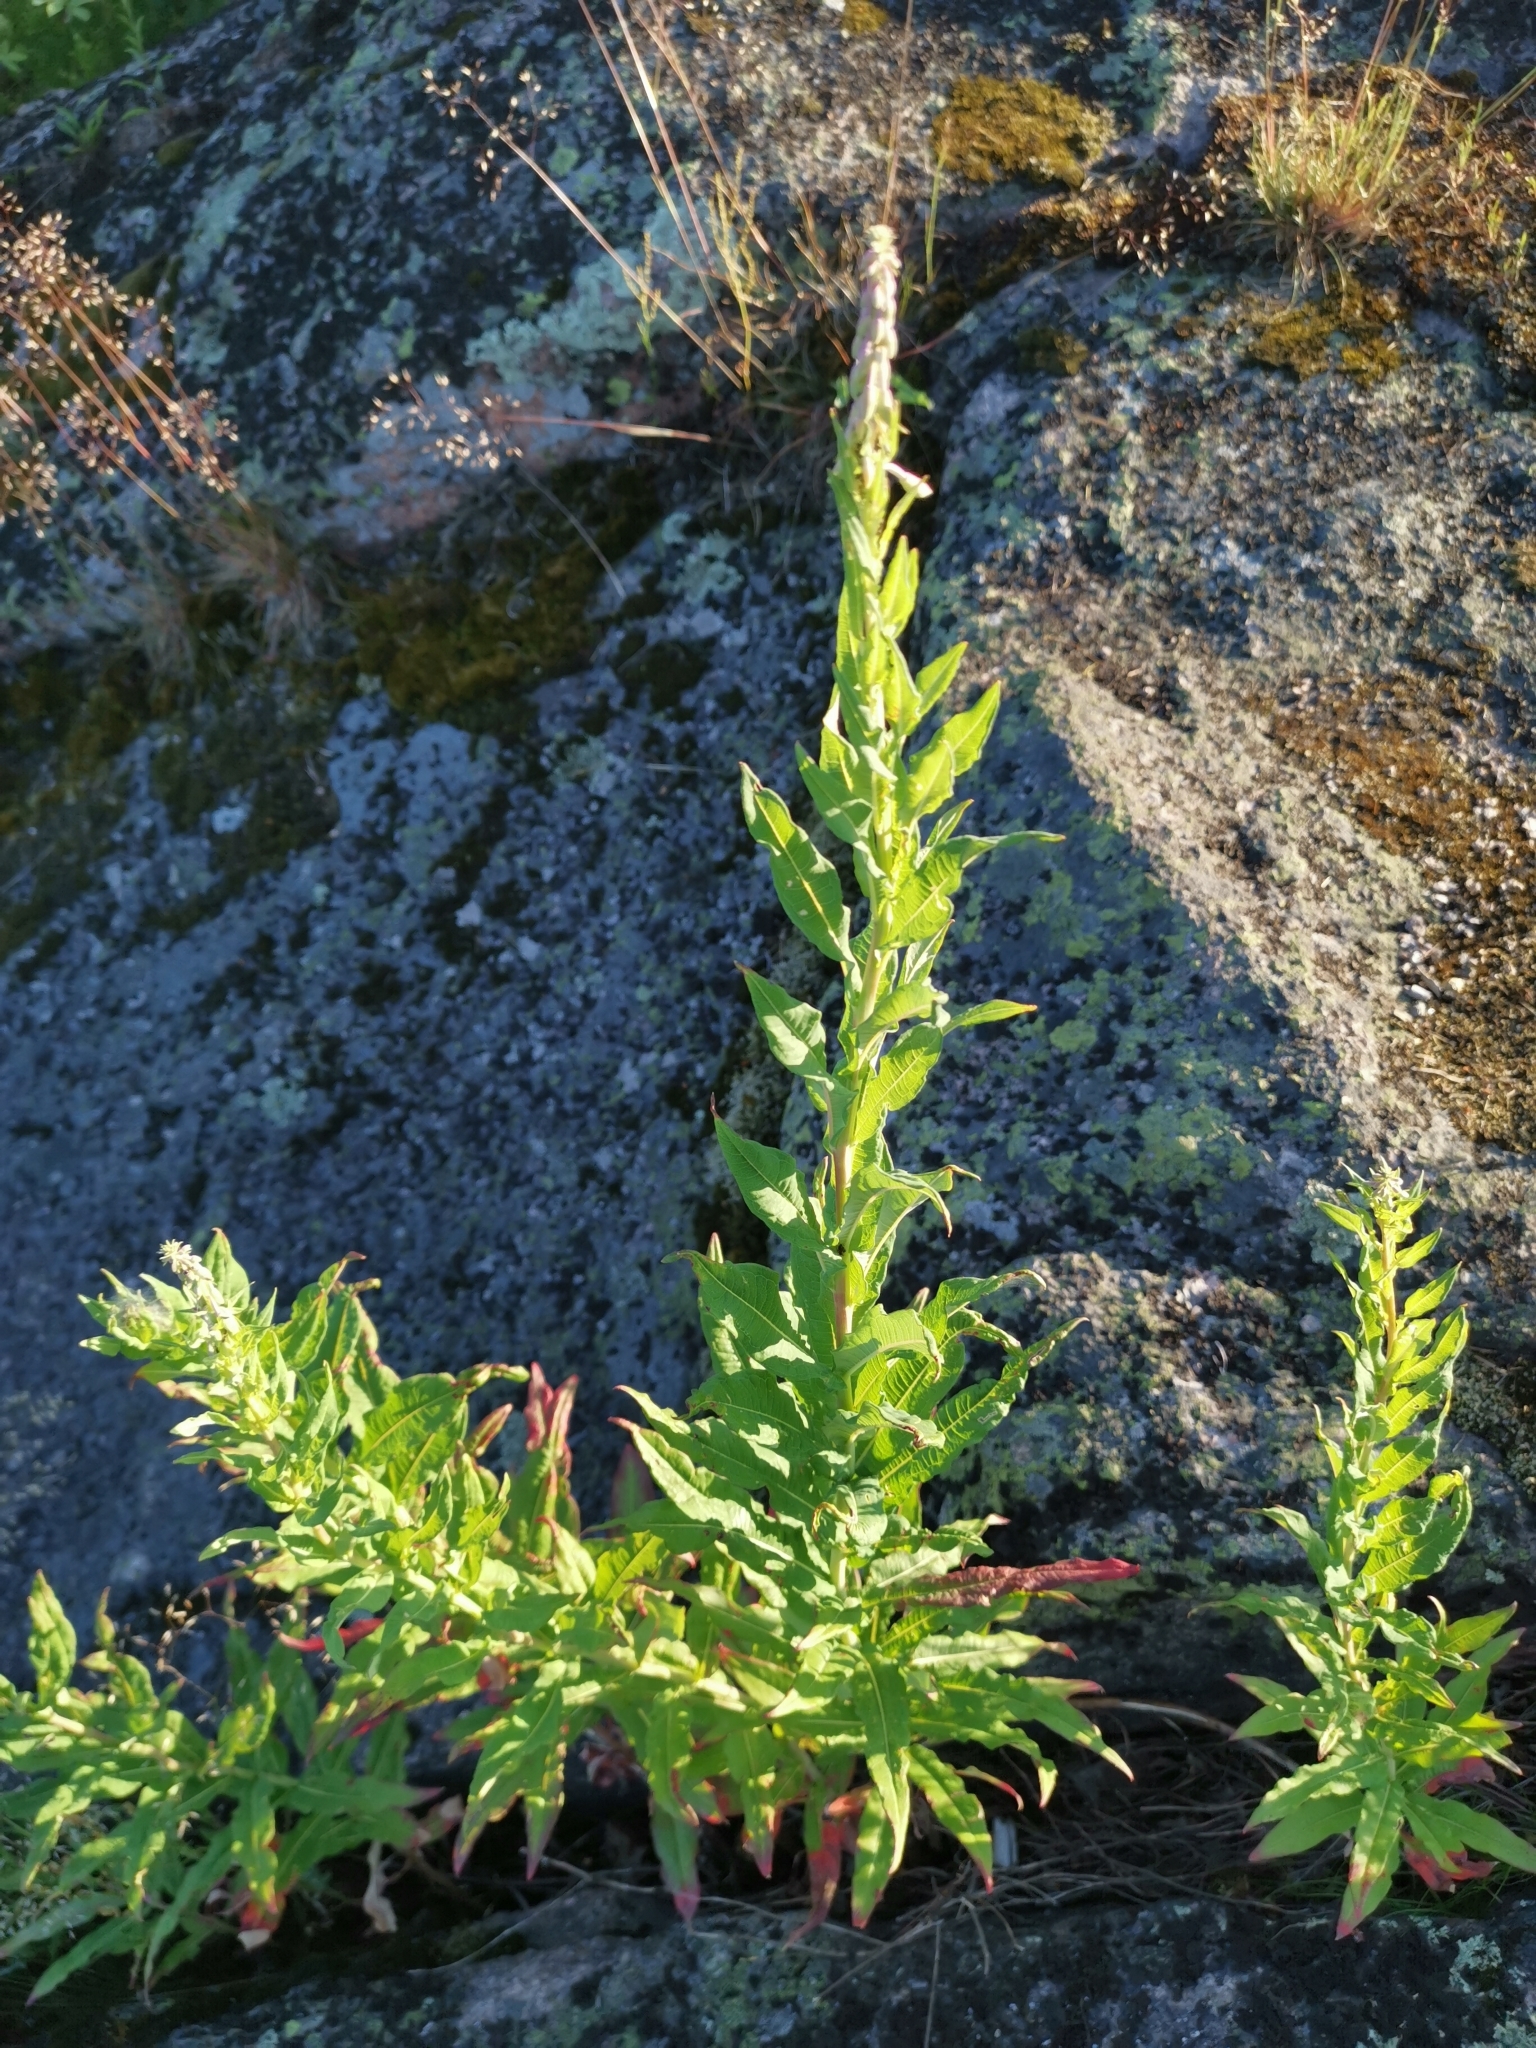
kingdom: Plantae
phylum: Tracheophyta
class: Magnoliopsida
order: Myrtales
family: Onagraceae
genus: Chamaenerion
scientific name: Chamaenerion angustifolium
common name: Fireweed
